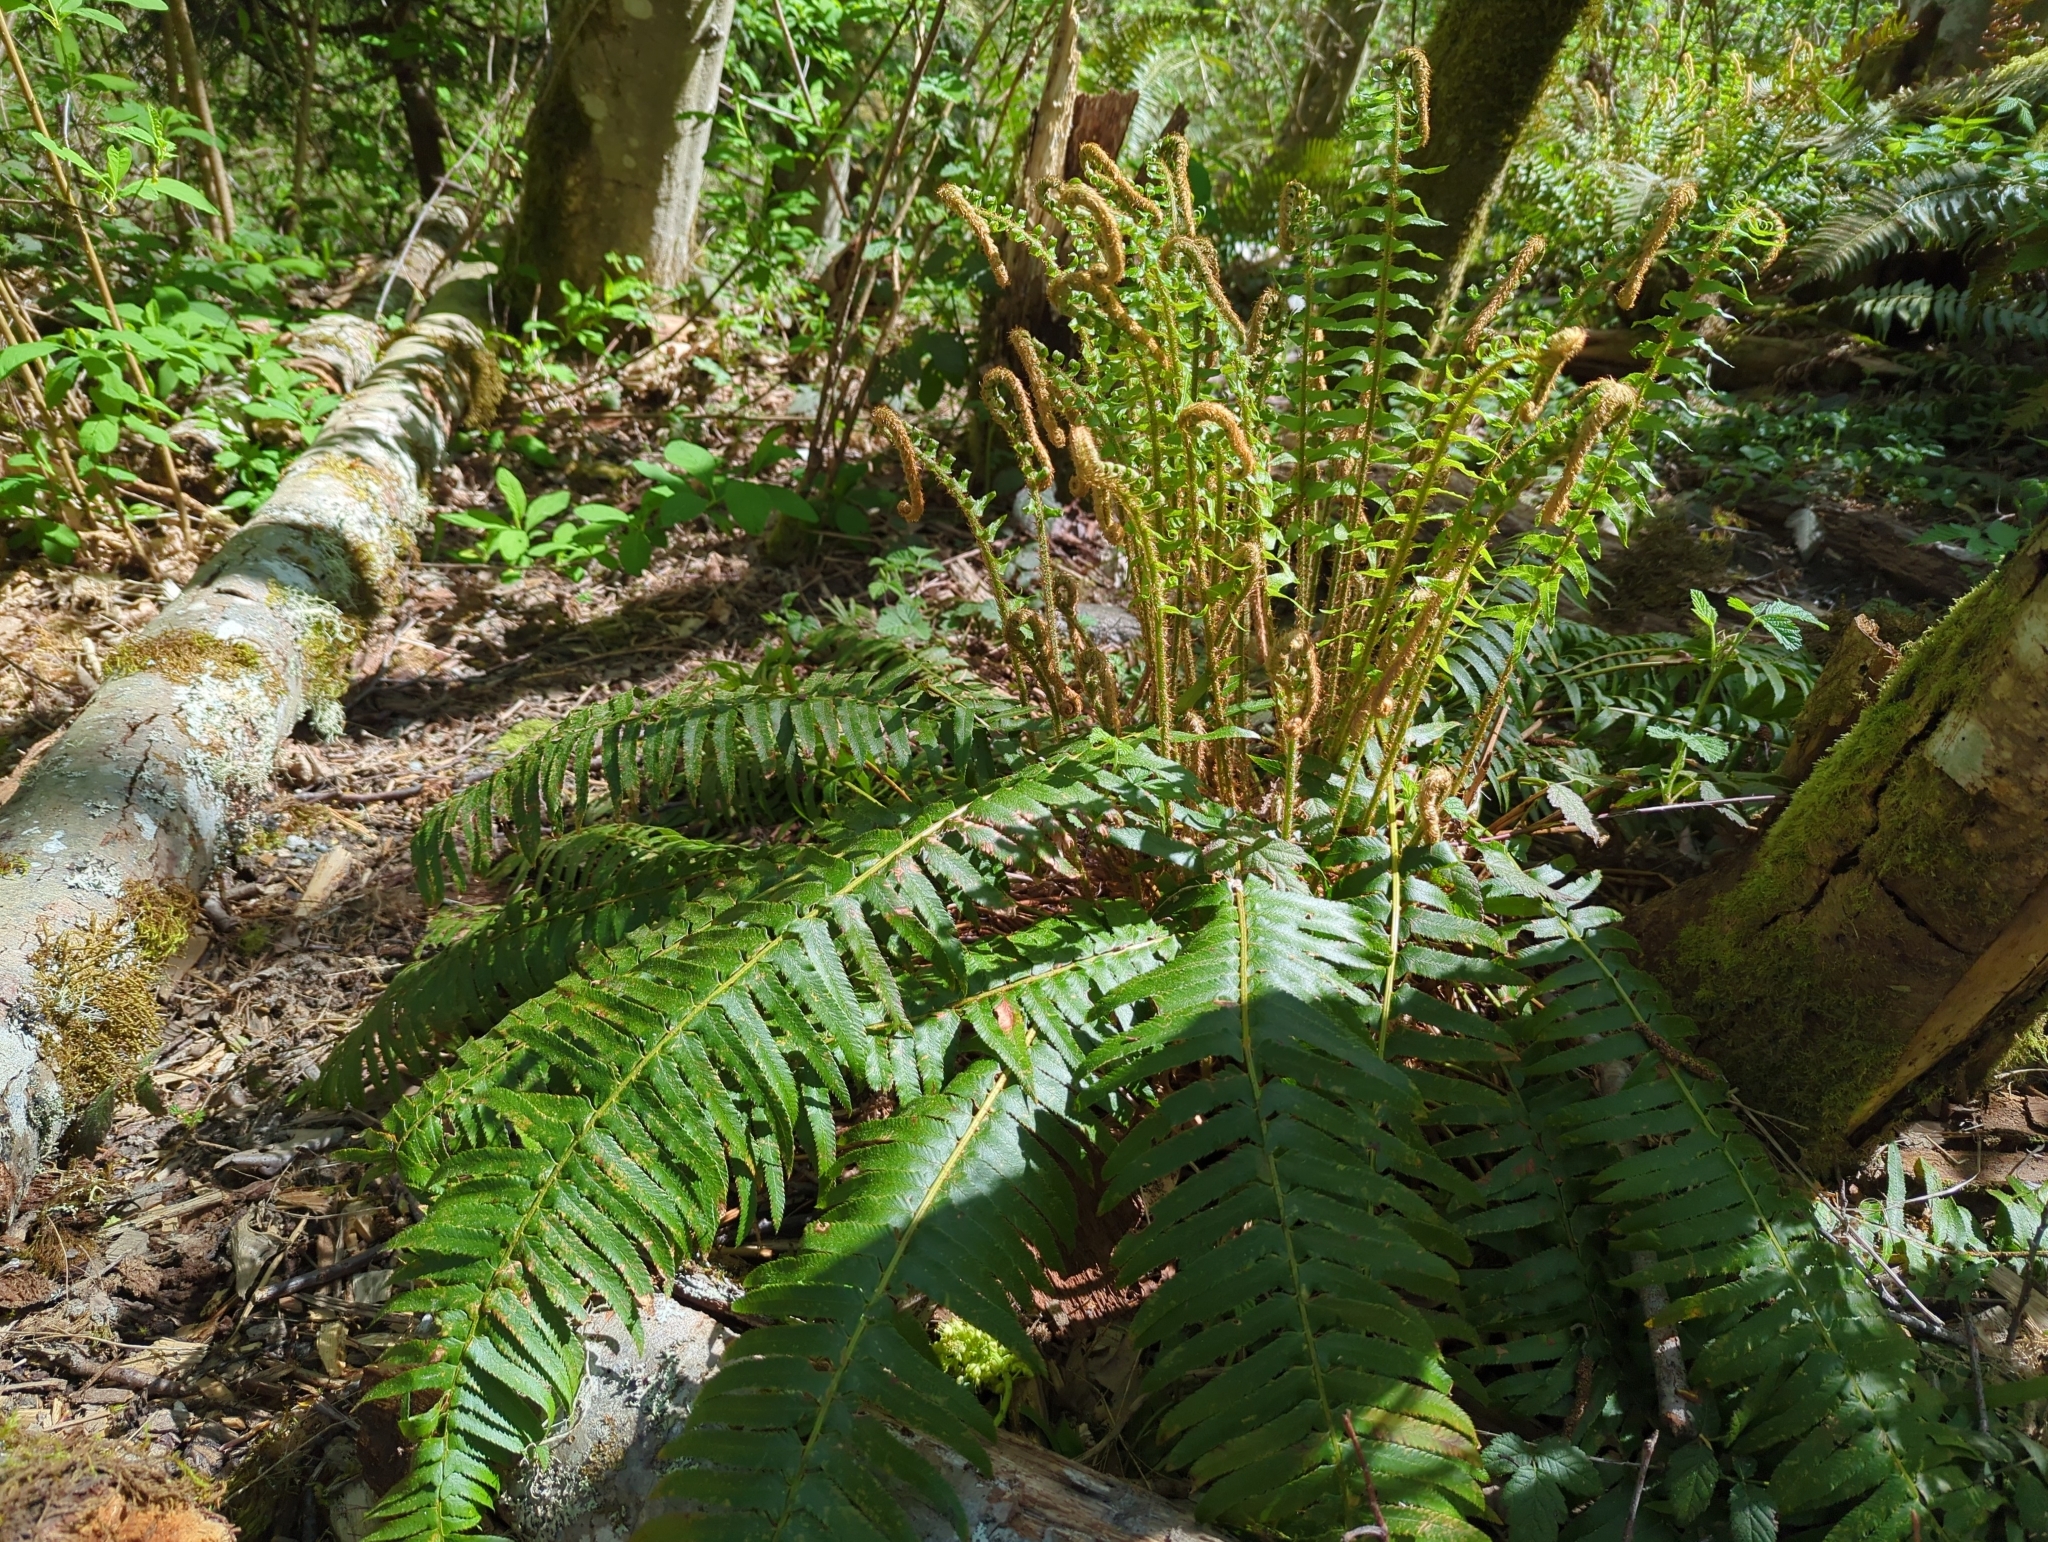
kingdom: Plantae
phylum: Tracheophyta
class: Polypodiopsida
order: Polypodiales
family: Dryopteridaceae
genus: Polystichum
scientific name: Polystichum munitum
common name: Western sword-fern
